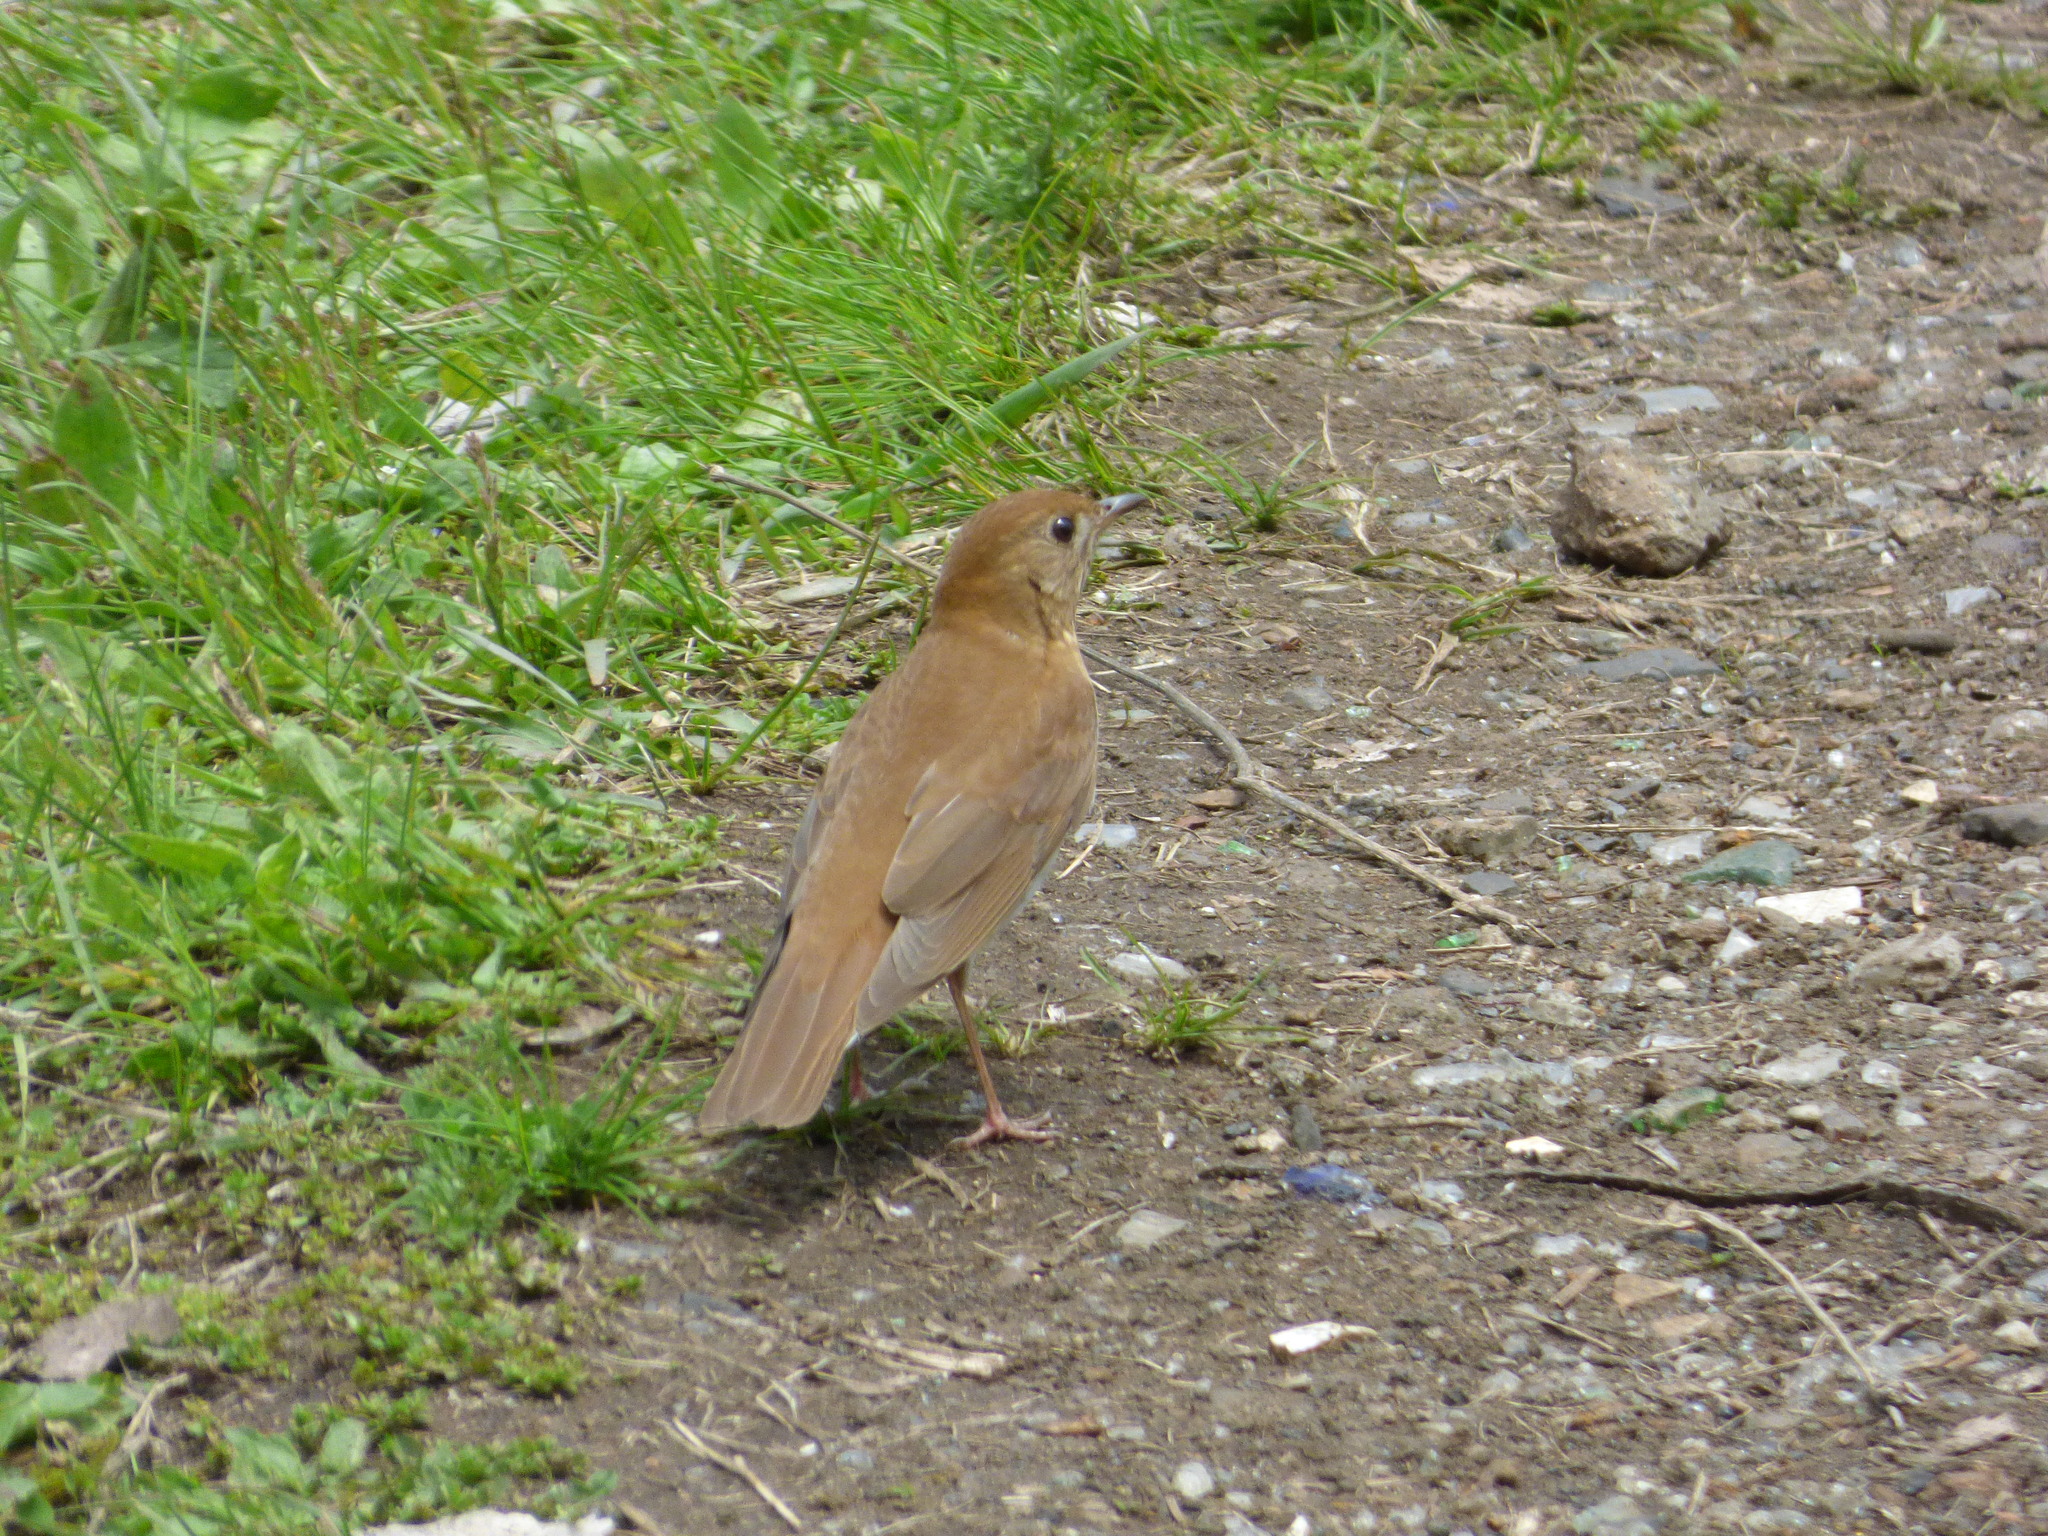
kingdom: Animalia
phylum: Chordata
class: Aves
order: Passeriformes
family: Turdidae
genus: Catharus
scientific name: Catharus fuscescens
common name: Veery
